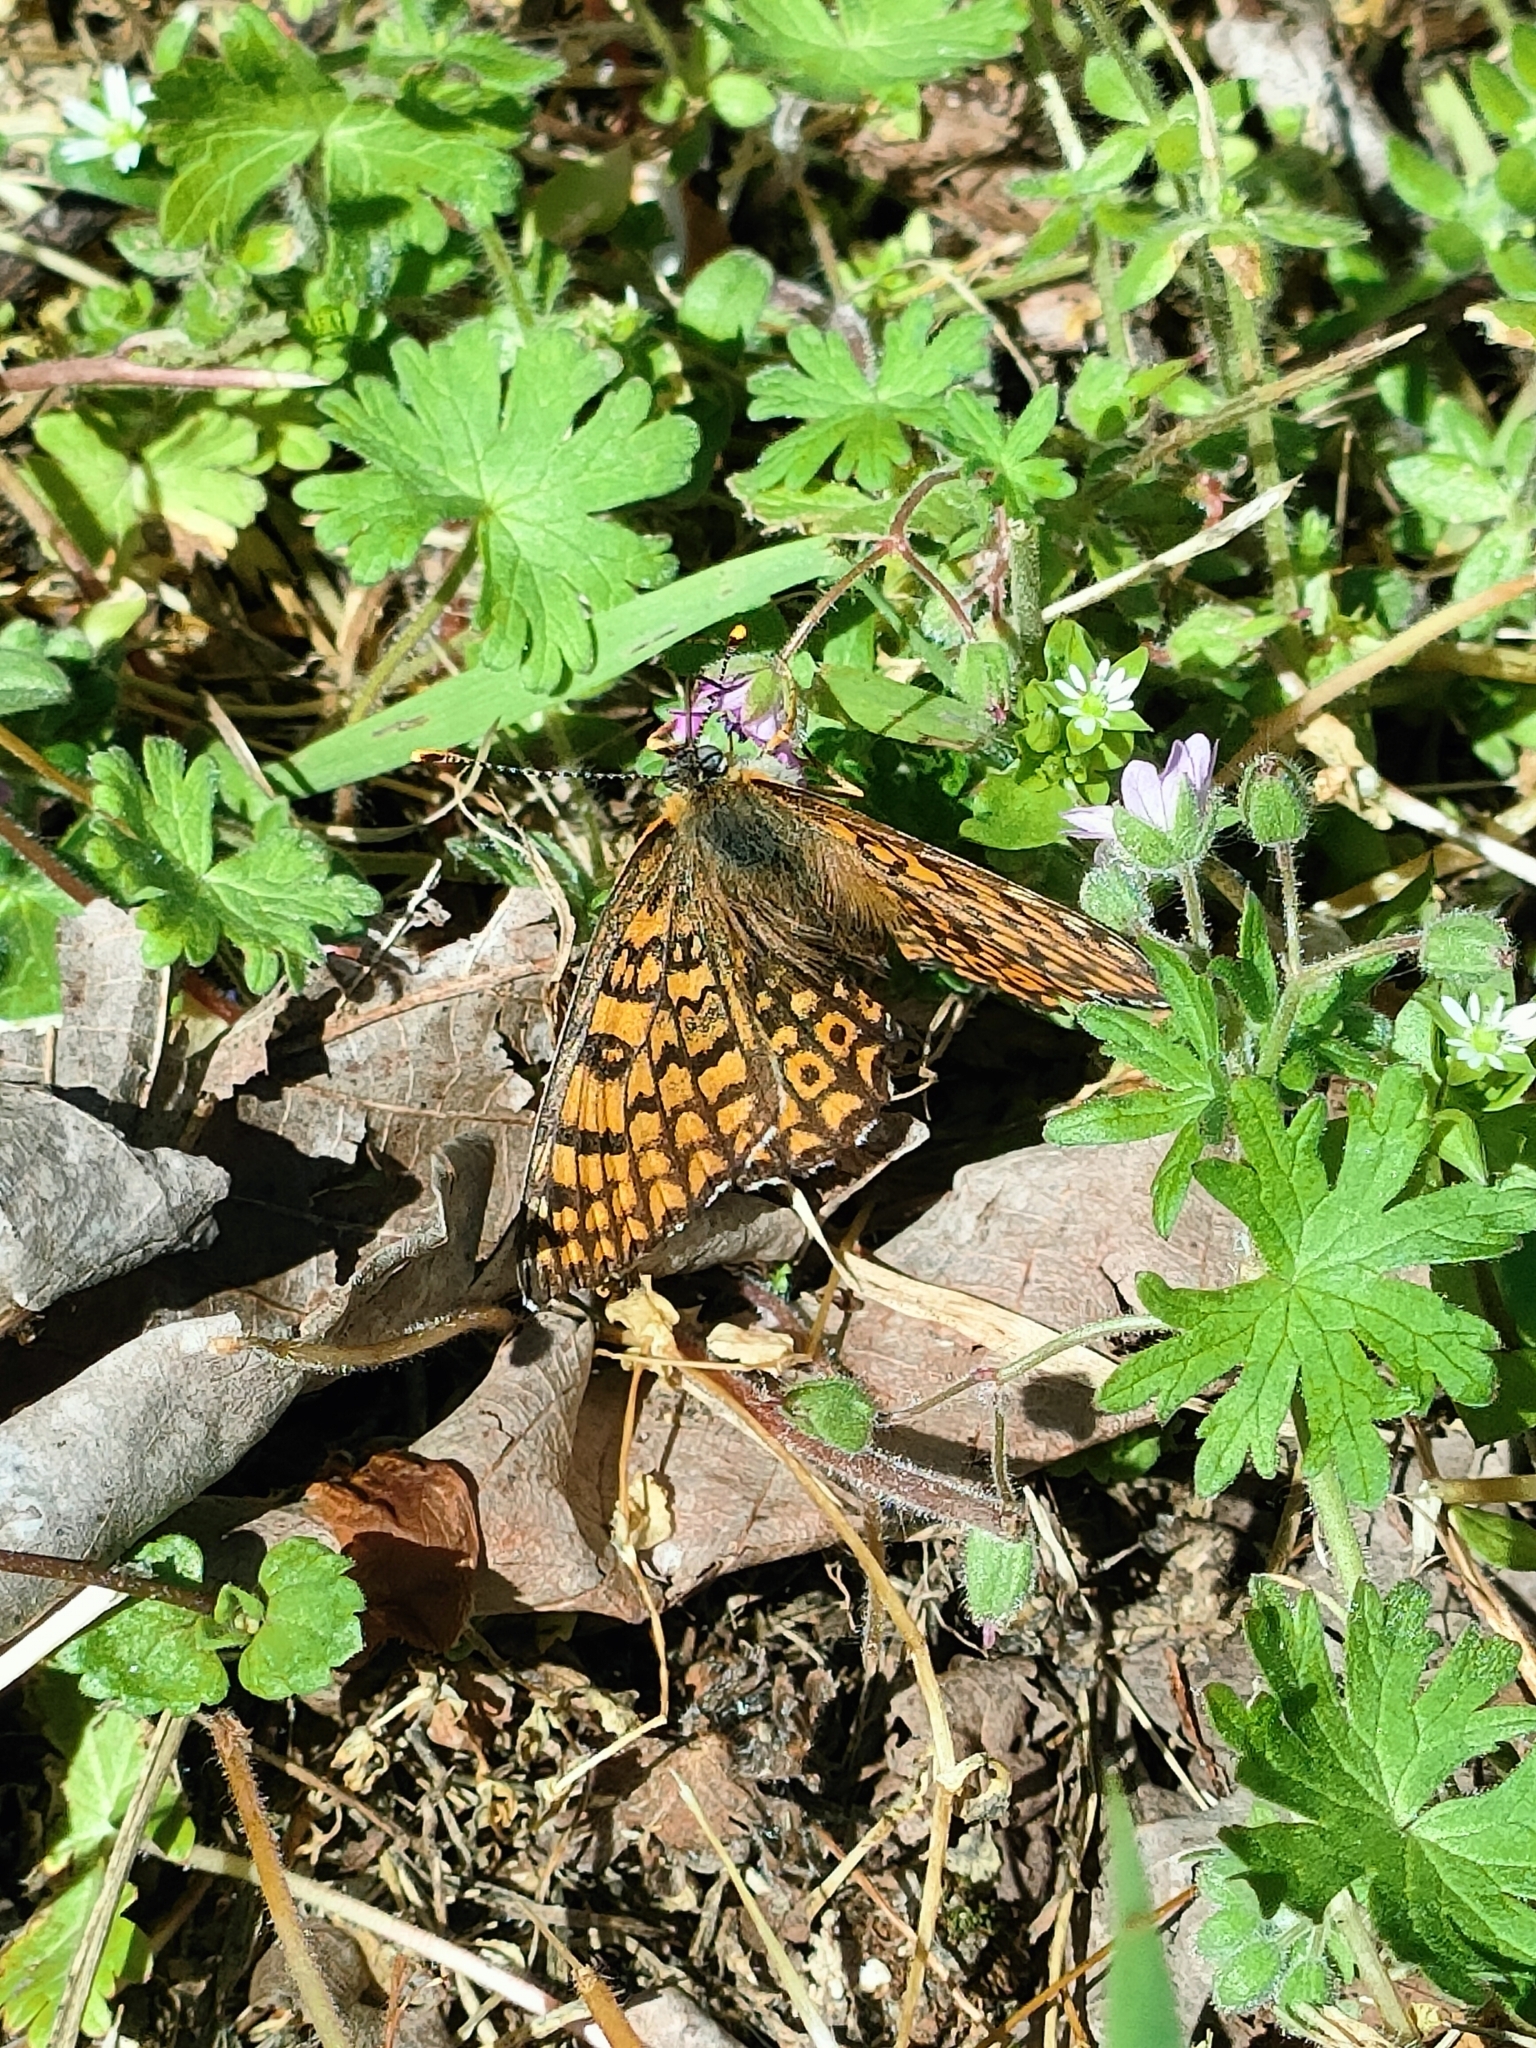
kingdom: Animalia
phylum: Arthropoda
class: Insecta
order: Lepidoptera
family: Nymphalidae
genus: Melitaea
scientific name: Melitaea cinxia
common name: Glanville fritillary
